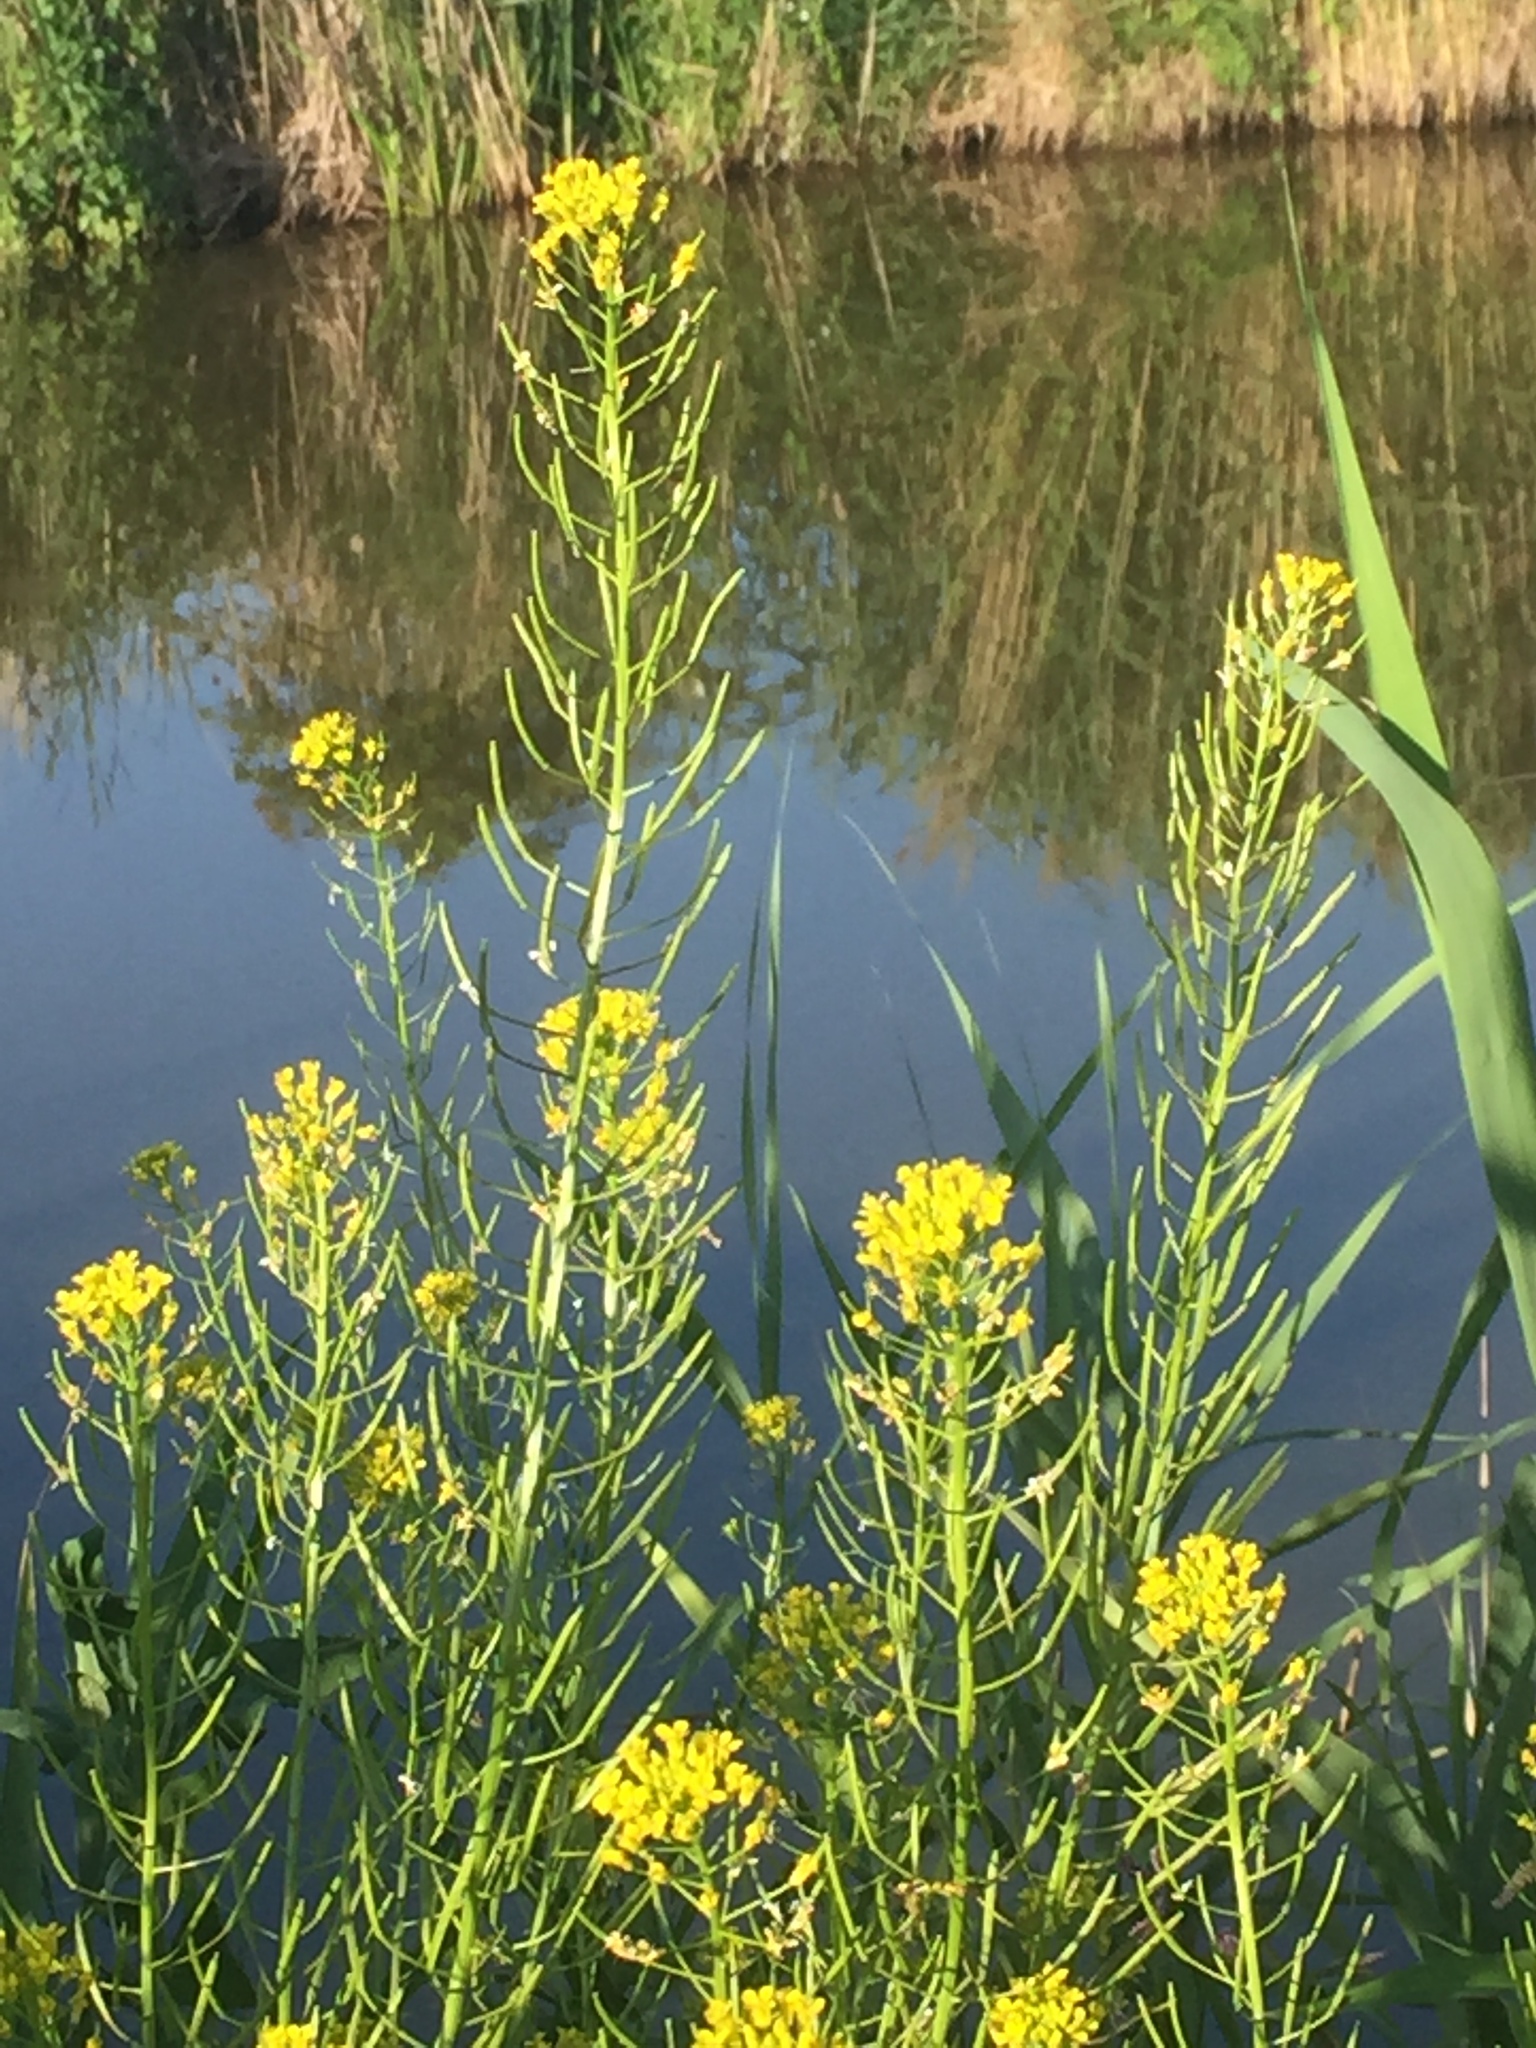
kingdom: Plantae
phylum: Tracheophyta
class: Magnoliopsida
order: Brassicales
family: Brassicaceae
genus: Erysimum
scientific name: Erysimum cheiranthoides
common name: Treacle mustard
